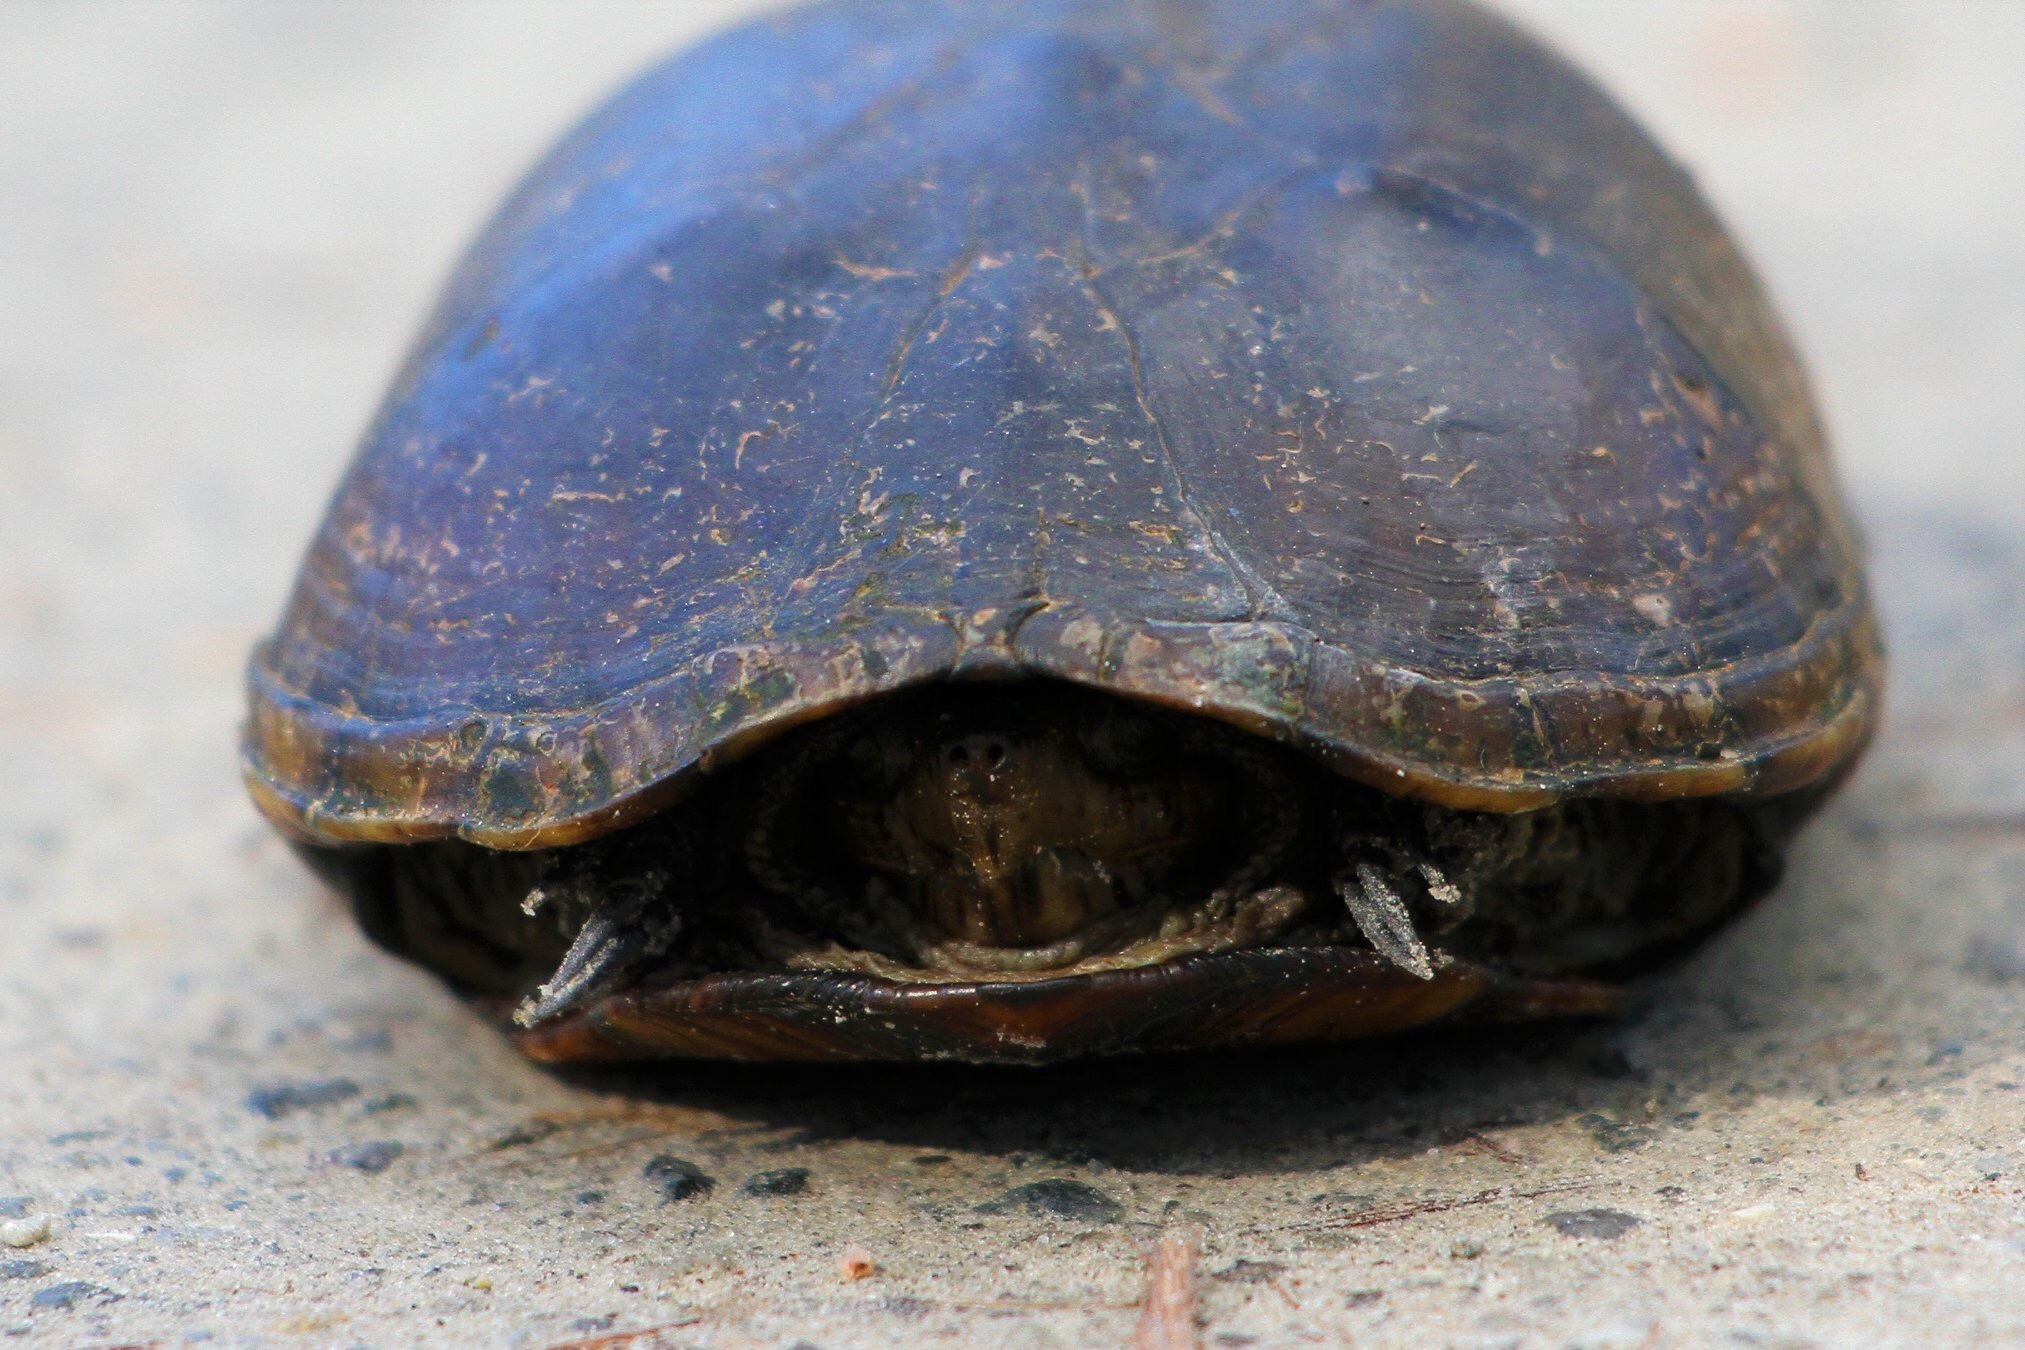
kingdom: Animalia
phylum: Chordata
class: Testudines
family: Kinosternidae
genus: Kinosternon
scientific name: Kinosternon subrubrum
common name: Eastern mud turtle
